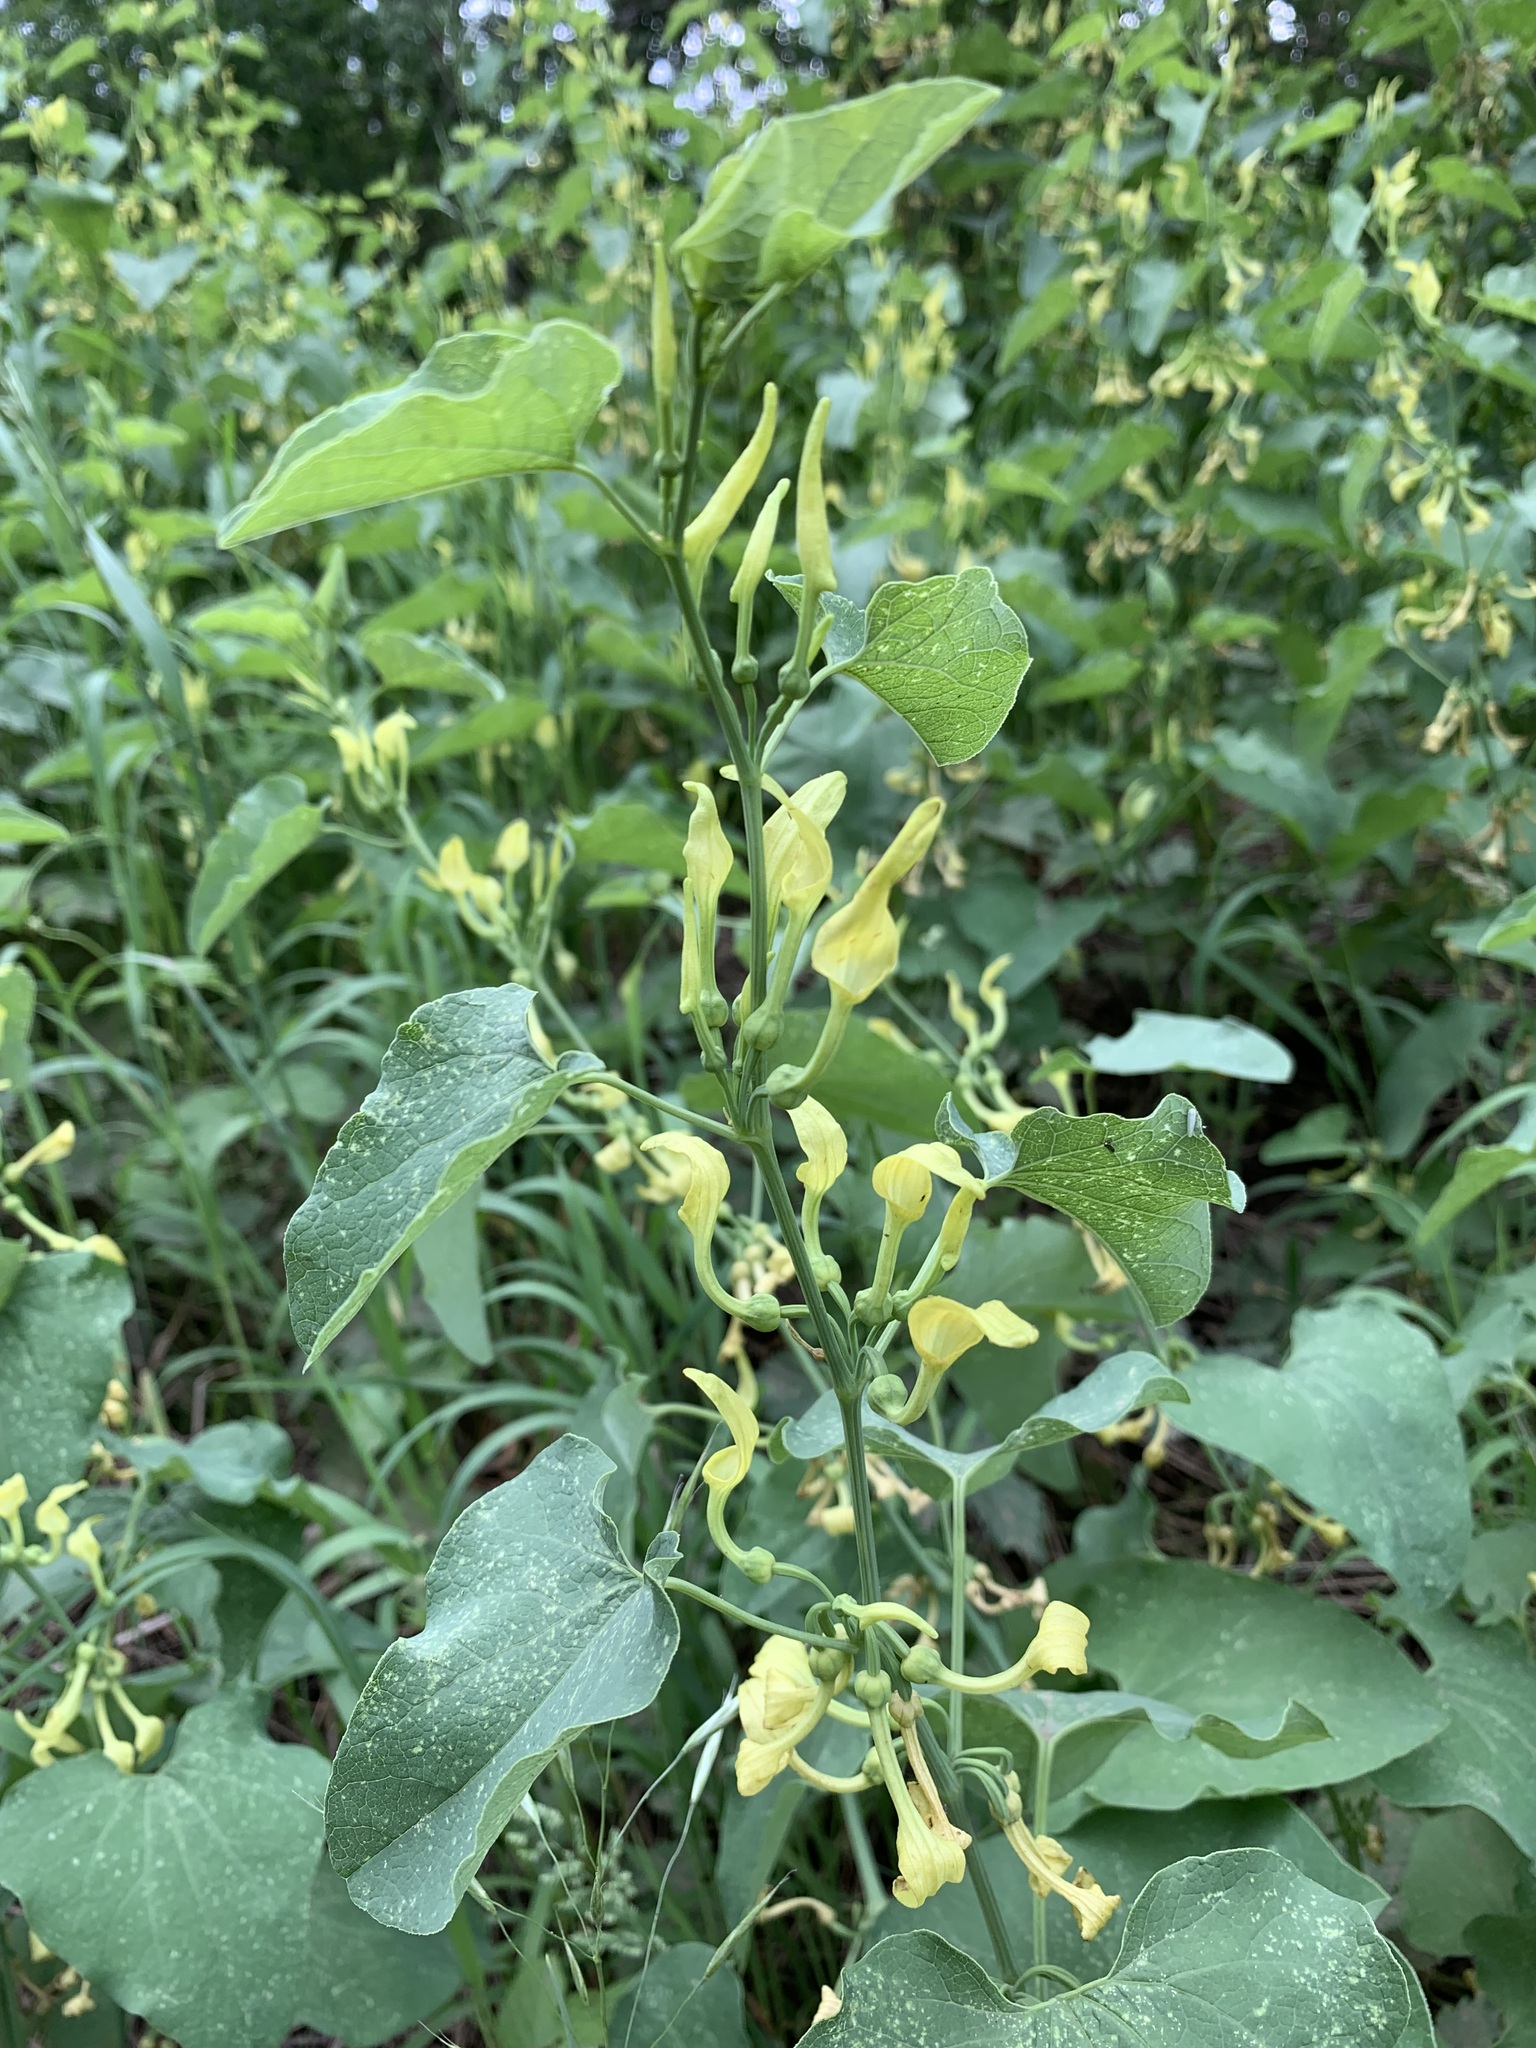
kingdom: Plantae
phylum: Tracheophyta
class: Magnoliopsida
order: Piperales
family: Aristolochiaceae
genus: Aristolochia
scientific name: Aristolochia clematitis
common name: Birthwort
